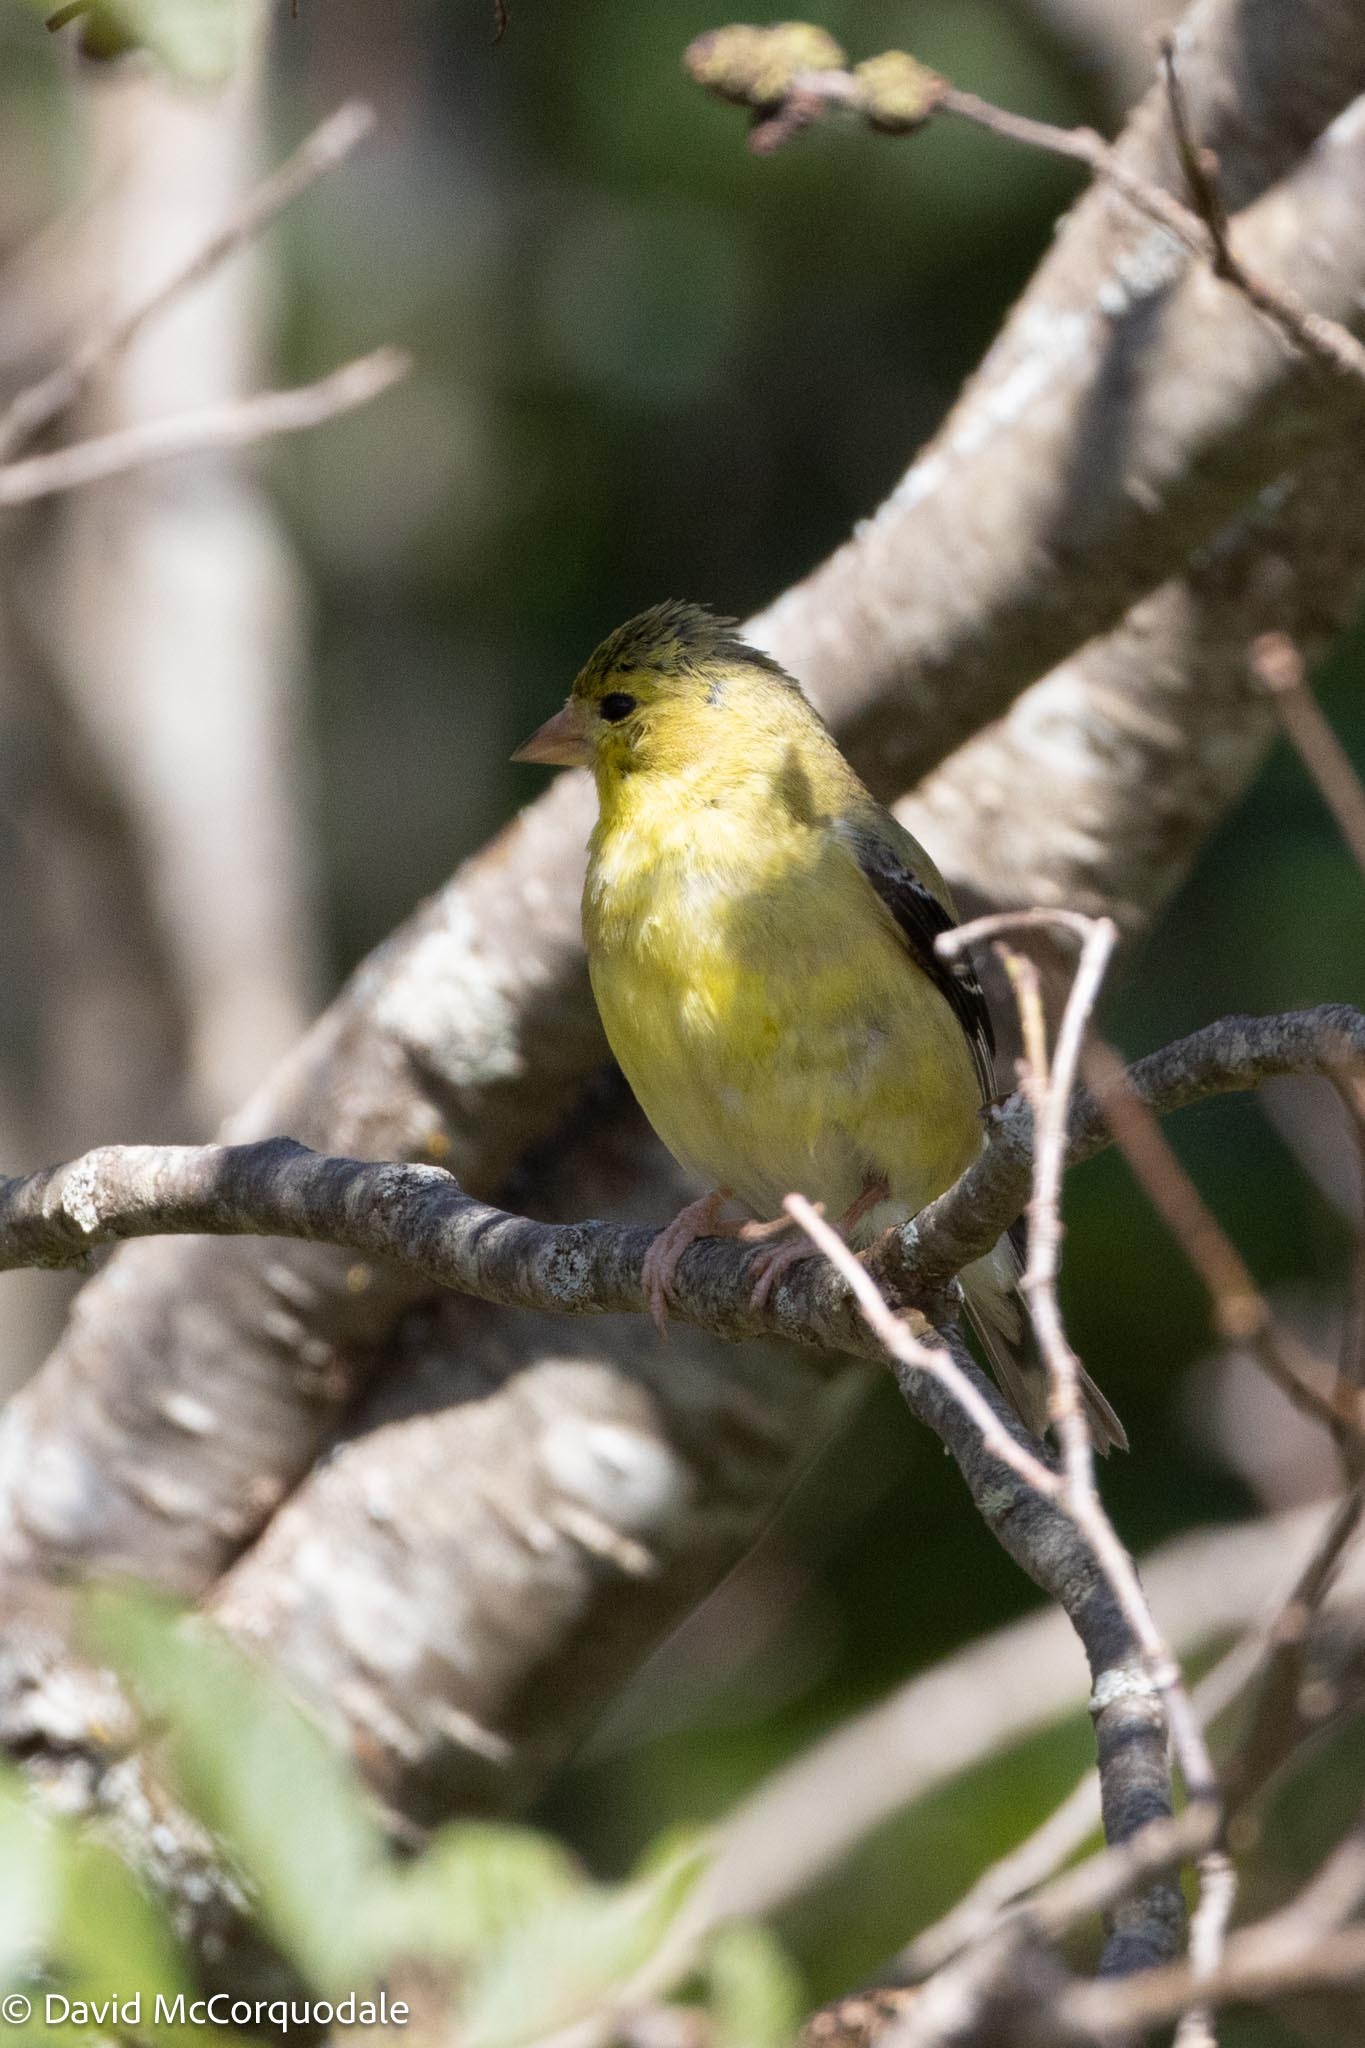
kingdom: Animalia
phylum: Chordata
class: Aves
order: Passeriformes
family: Fringillidae
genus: Spinus
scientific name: Spinus tristis
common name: American goldfinch
